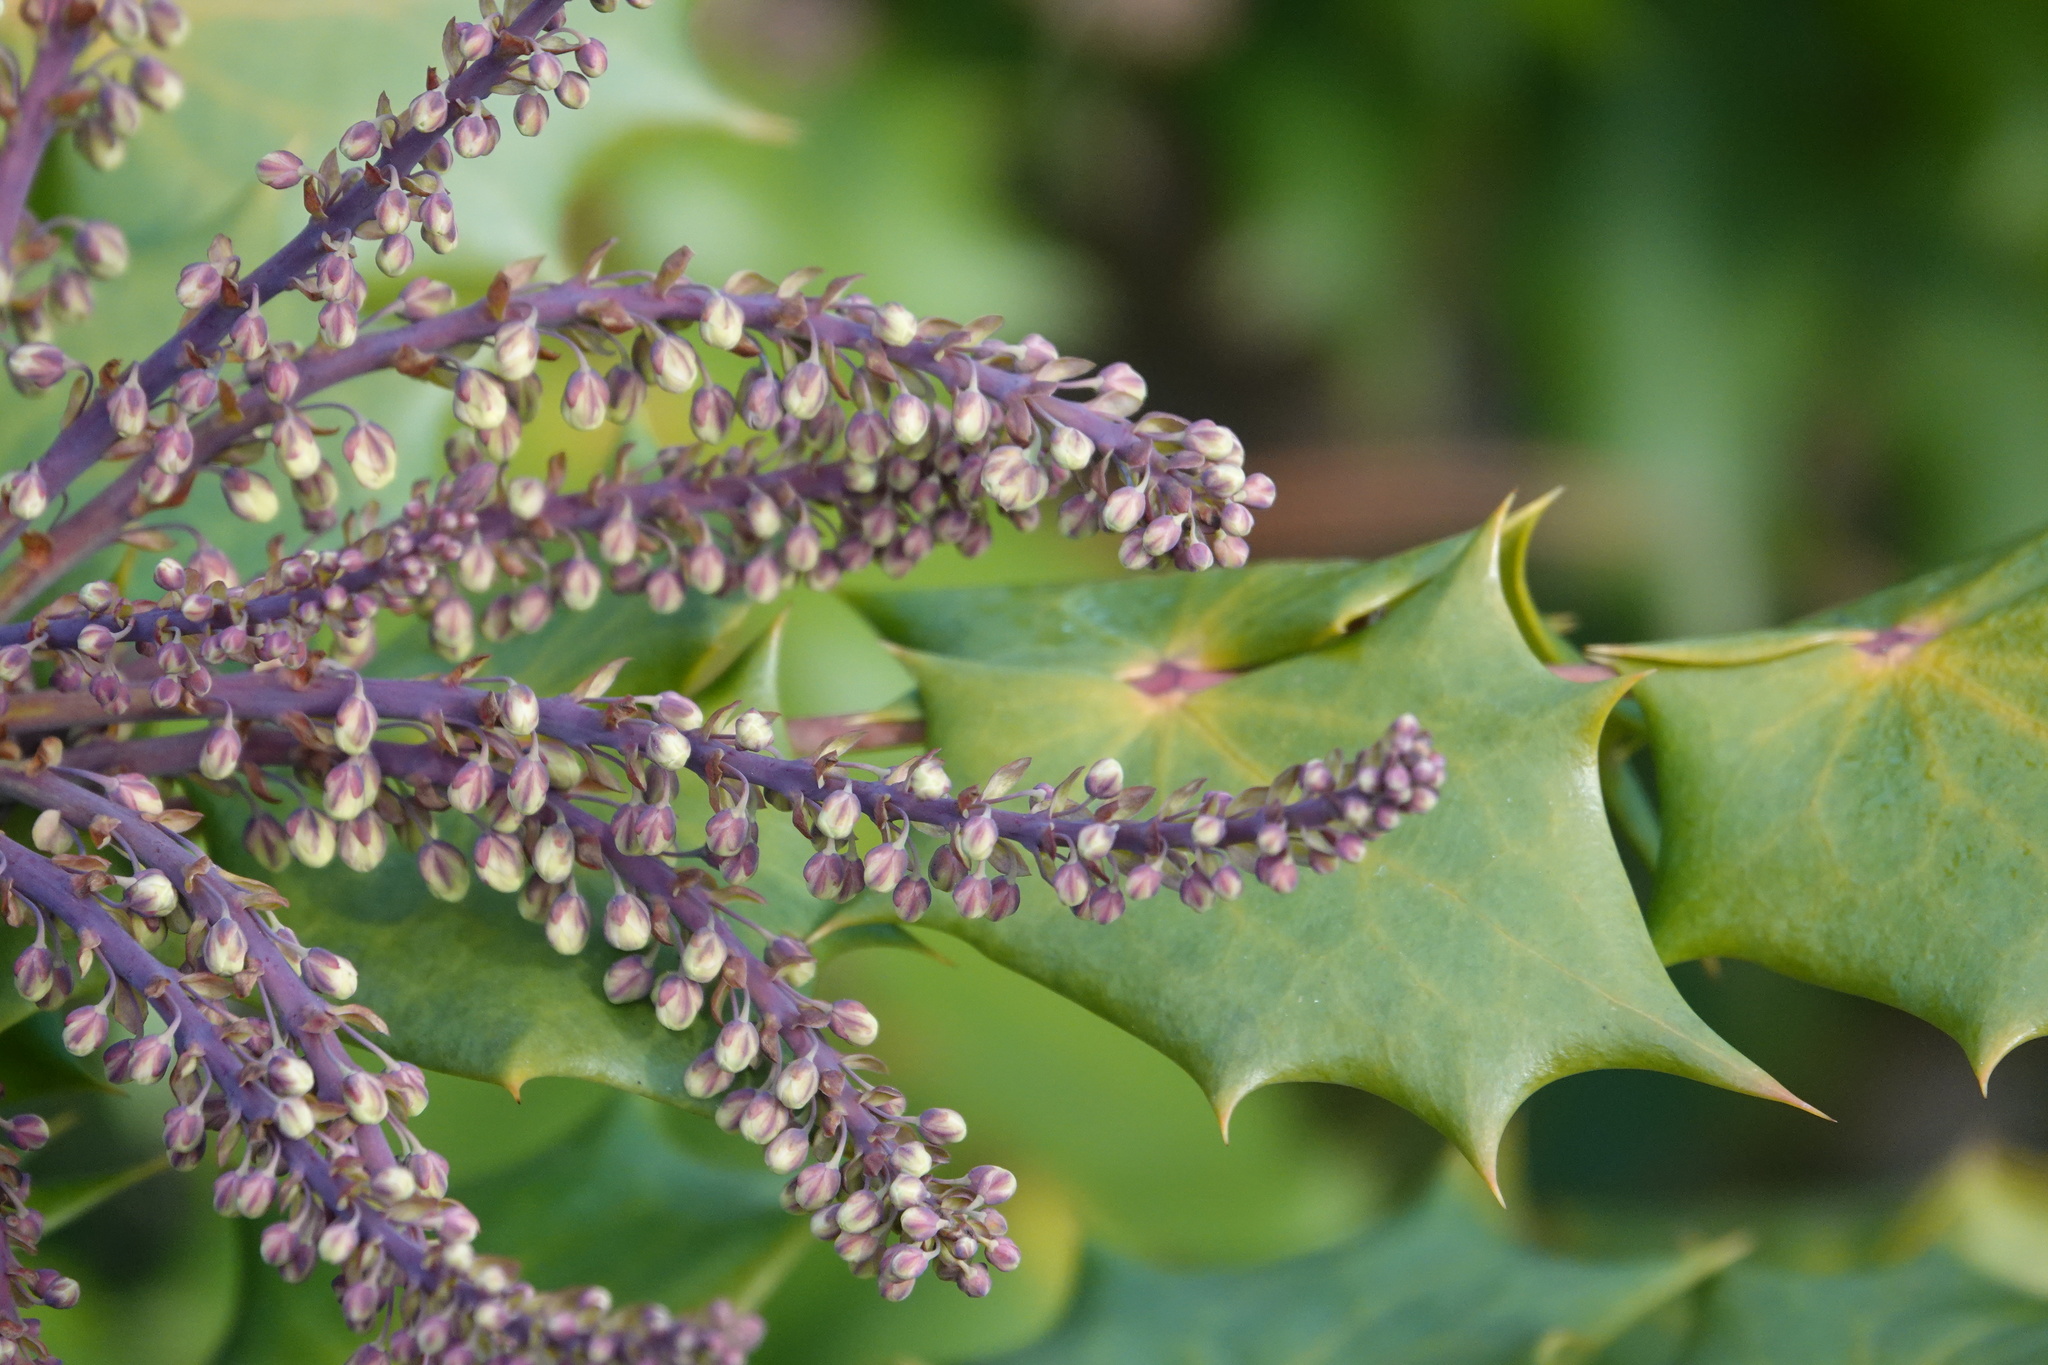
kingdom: Plantae
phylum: Tracheophyta
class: Magnoliopsida
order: Ranunculales
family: Berberidaceae
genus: Mahonia
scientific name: Mahonia bealei
